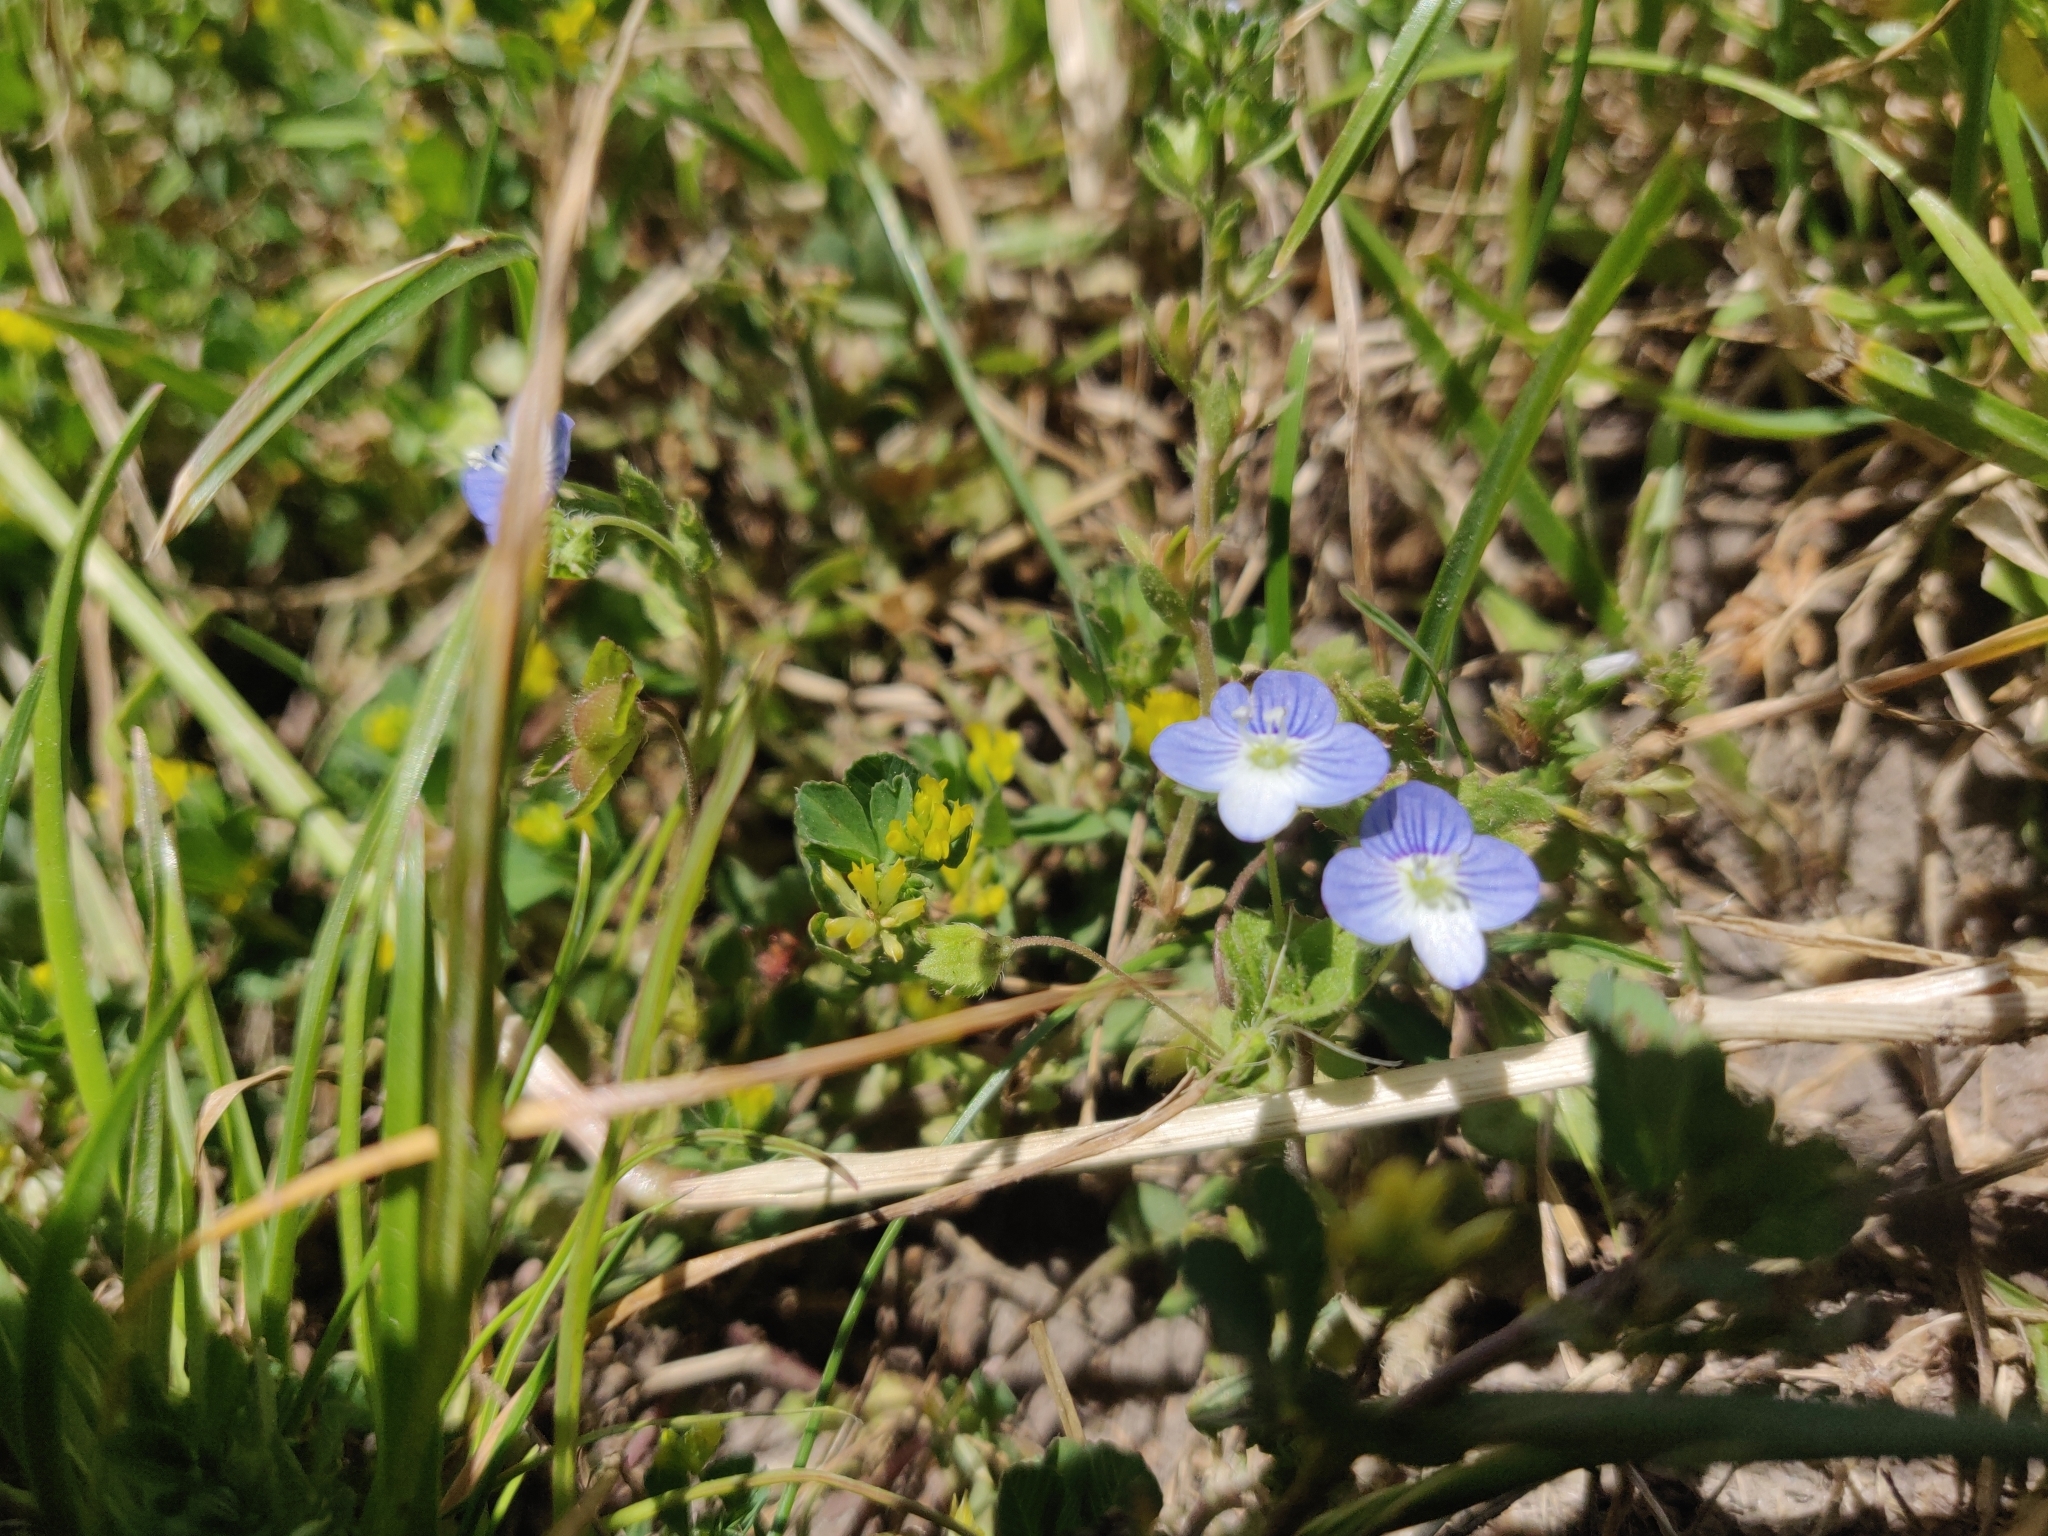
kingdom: Plantae
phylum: Tracheophyta
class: Magnoliopsida
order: Lamiales
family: Plantaginaceae
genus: Veronica
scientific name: Veronica persica
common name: Common field-speedwell
